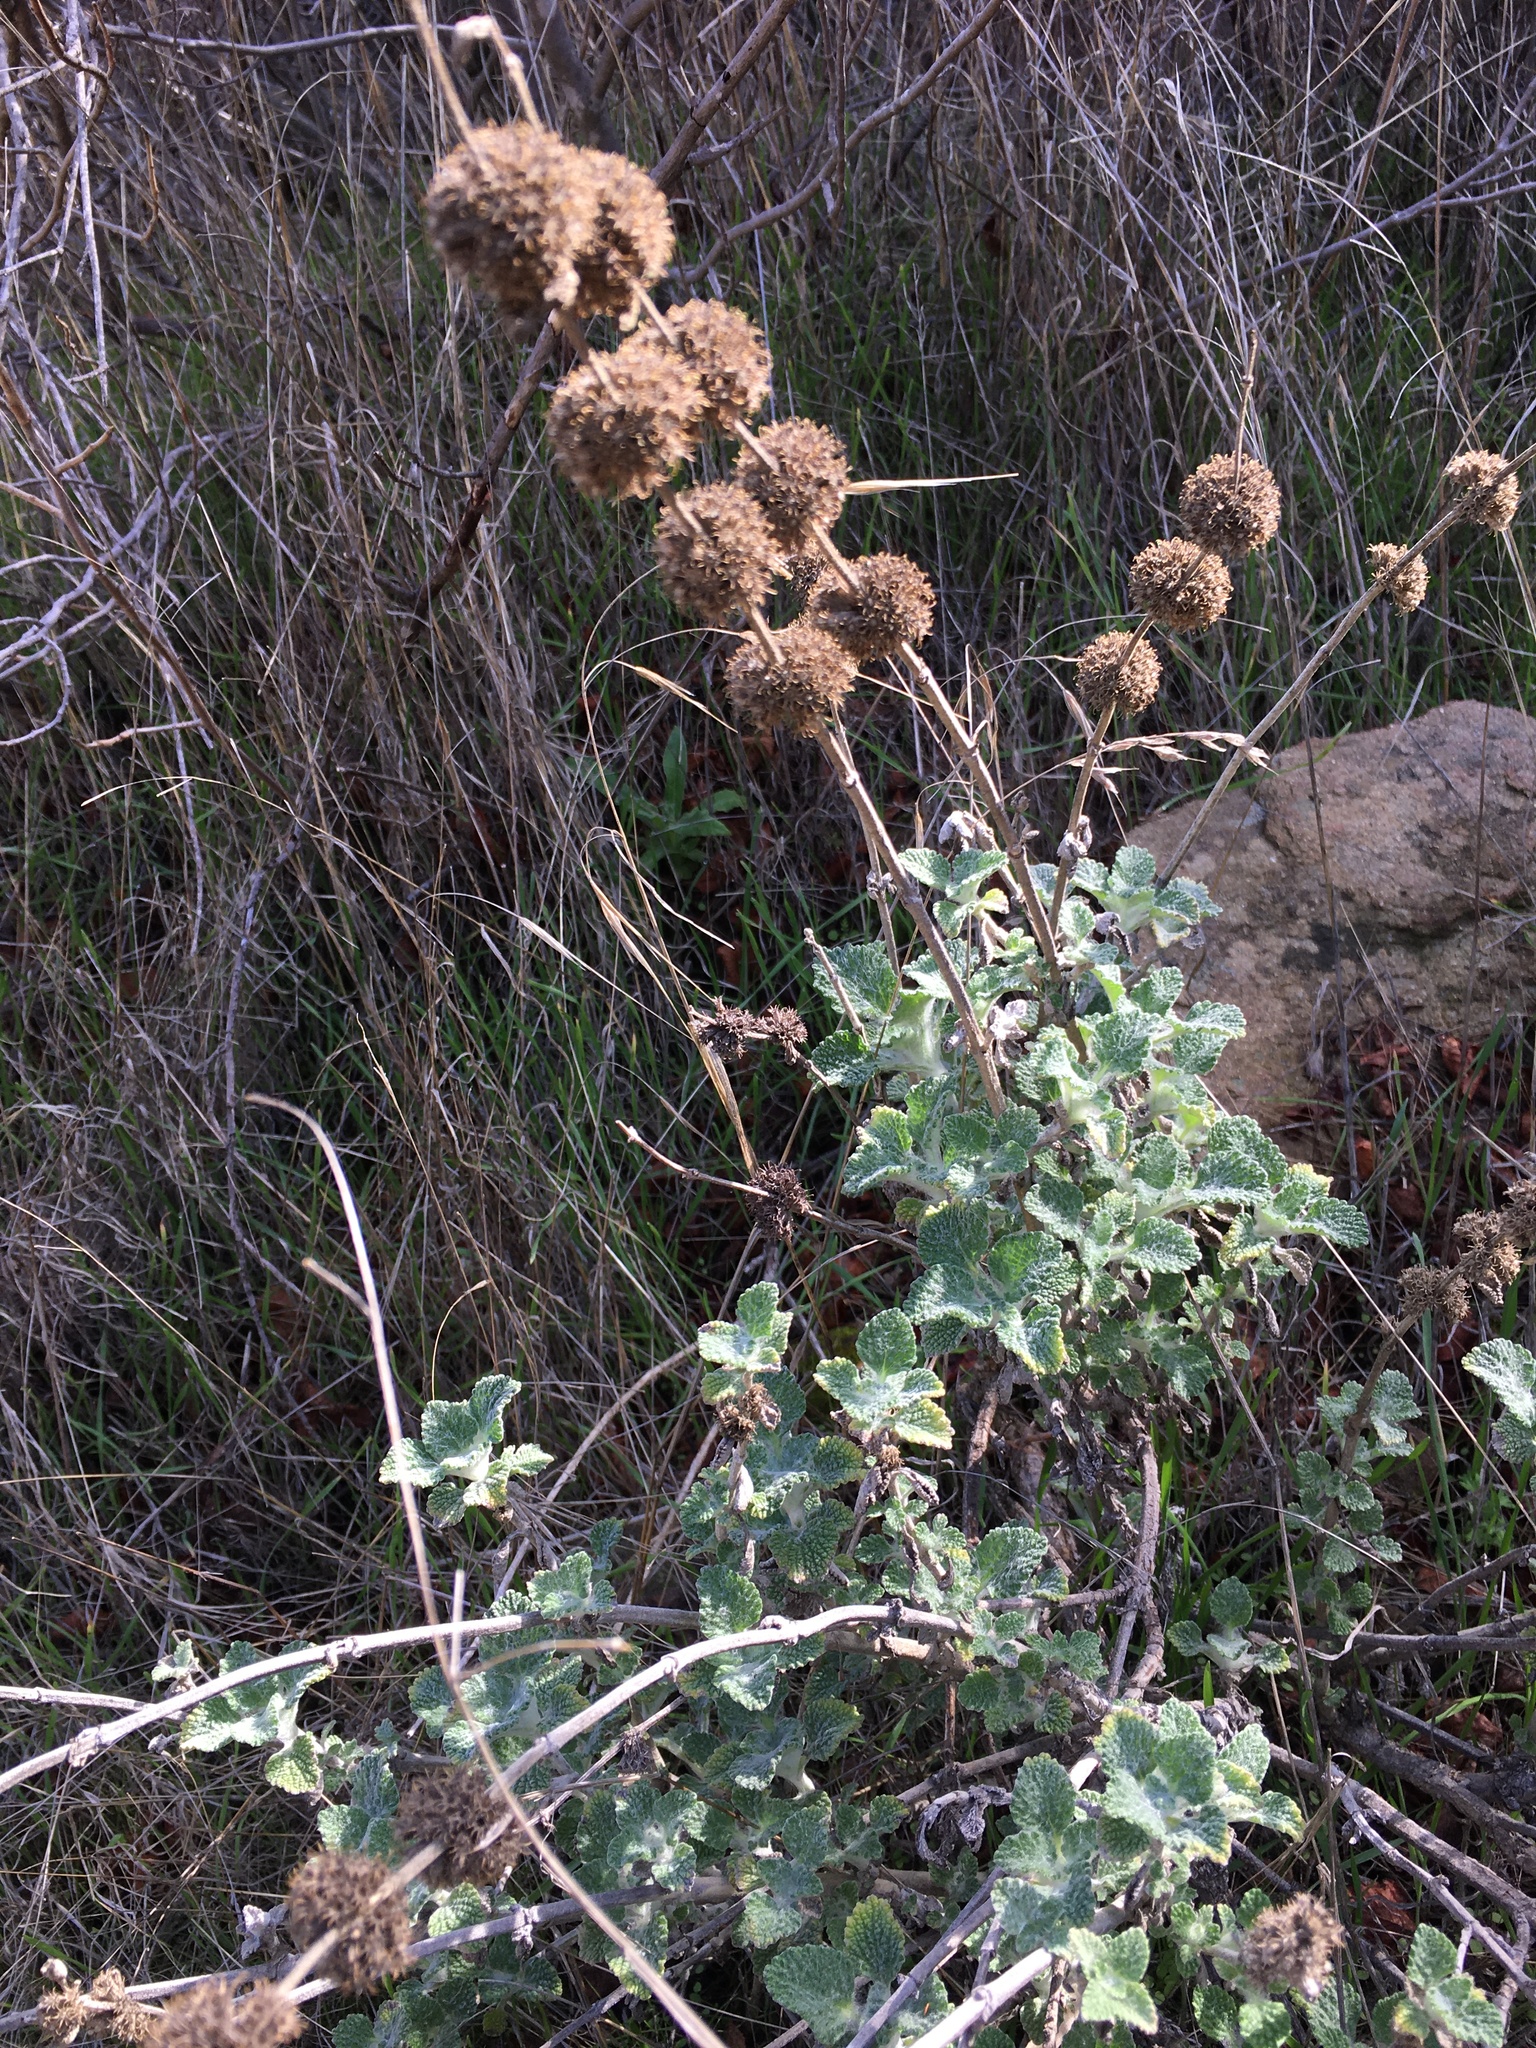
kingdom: Plantae
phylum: Tracheophyta
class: Magnoliopsida
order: Lamiales
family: Lamiaceae
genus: Marrubium
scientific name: Marrubium vulgare
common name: Horehound
